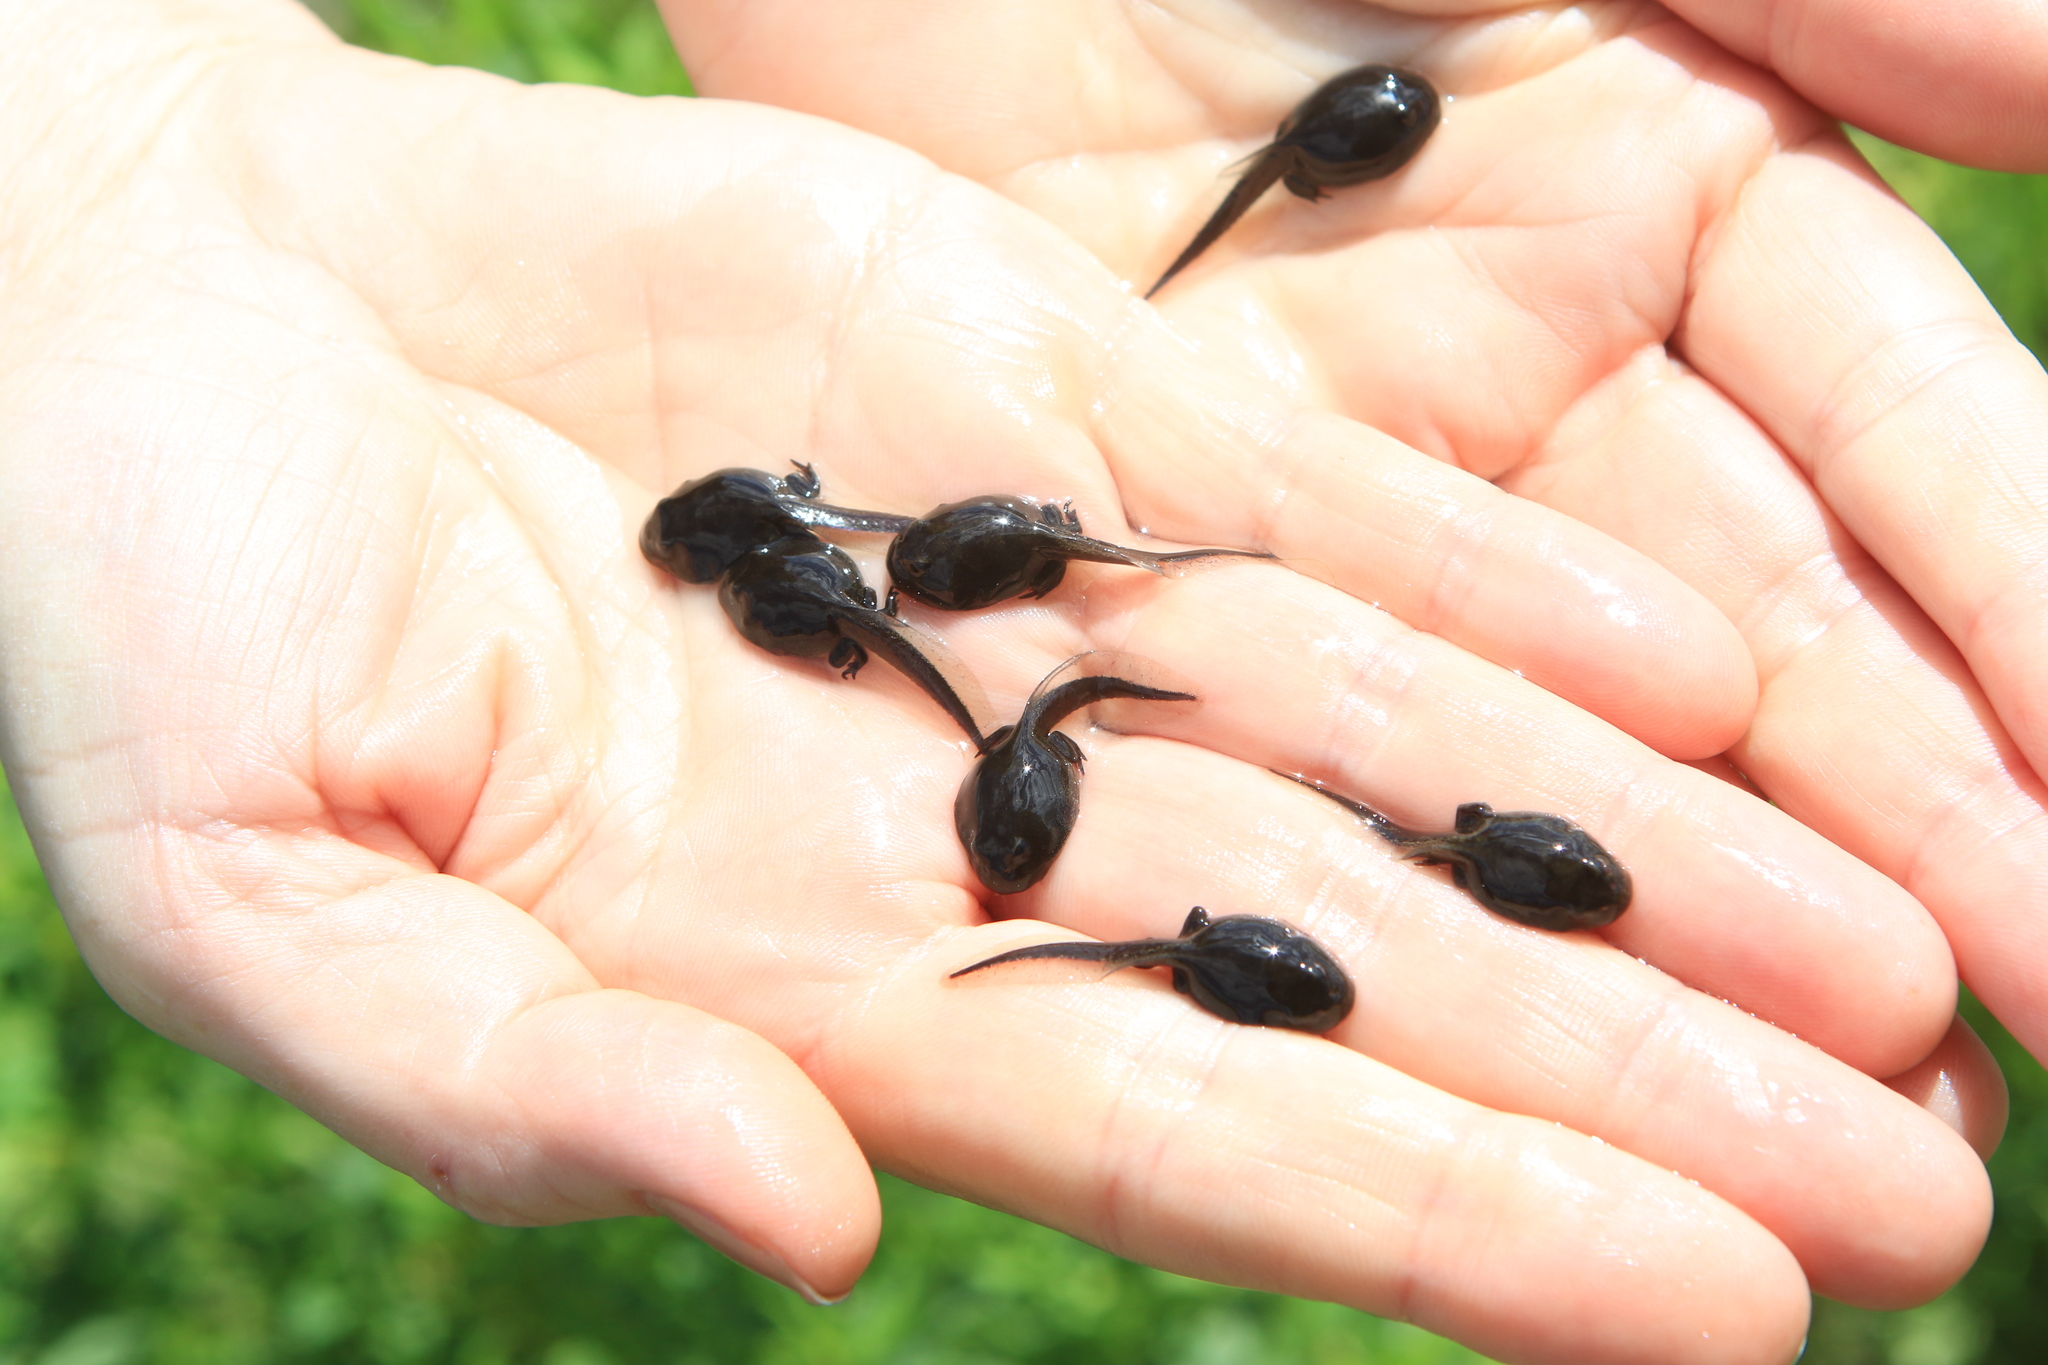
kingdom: Animalia
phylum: Chordata
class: Amphibia
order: Anura
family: Bufonidae
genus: Bufo
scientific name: Bufo bufo
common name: Common toad
